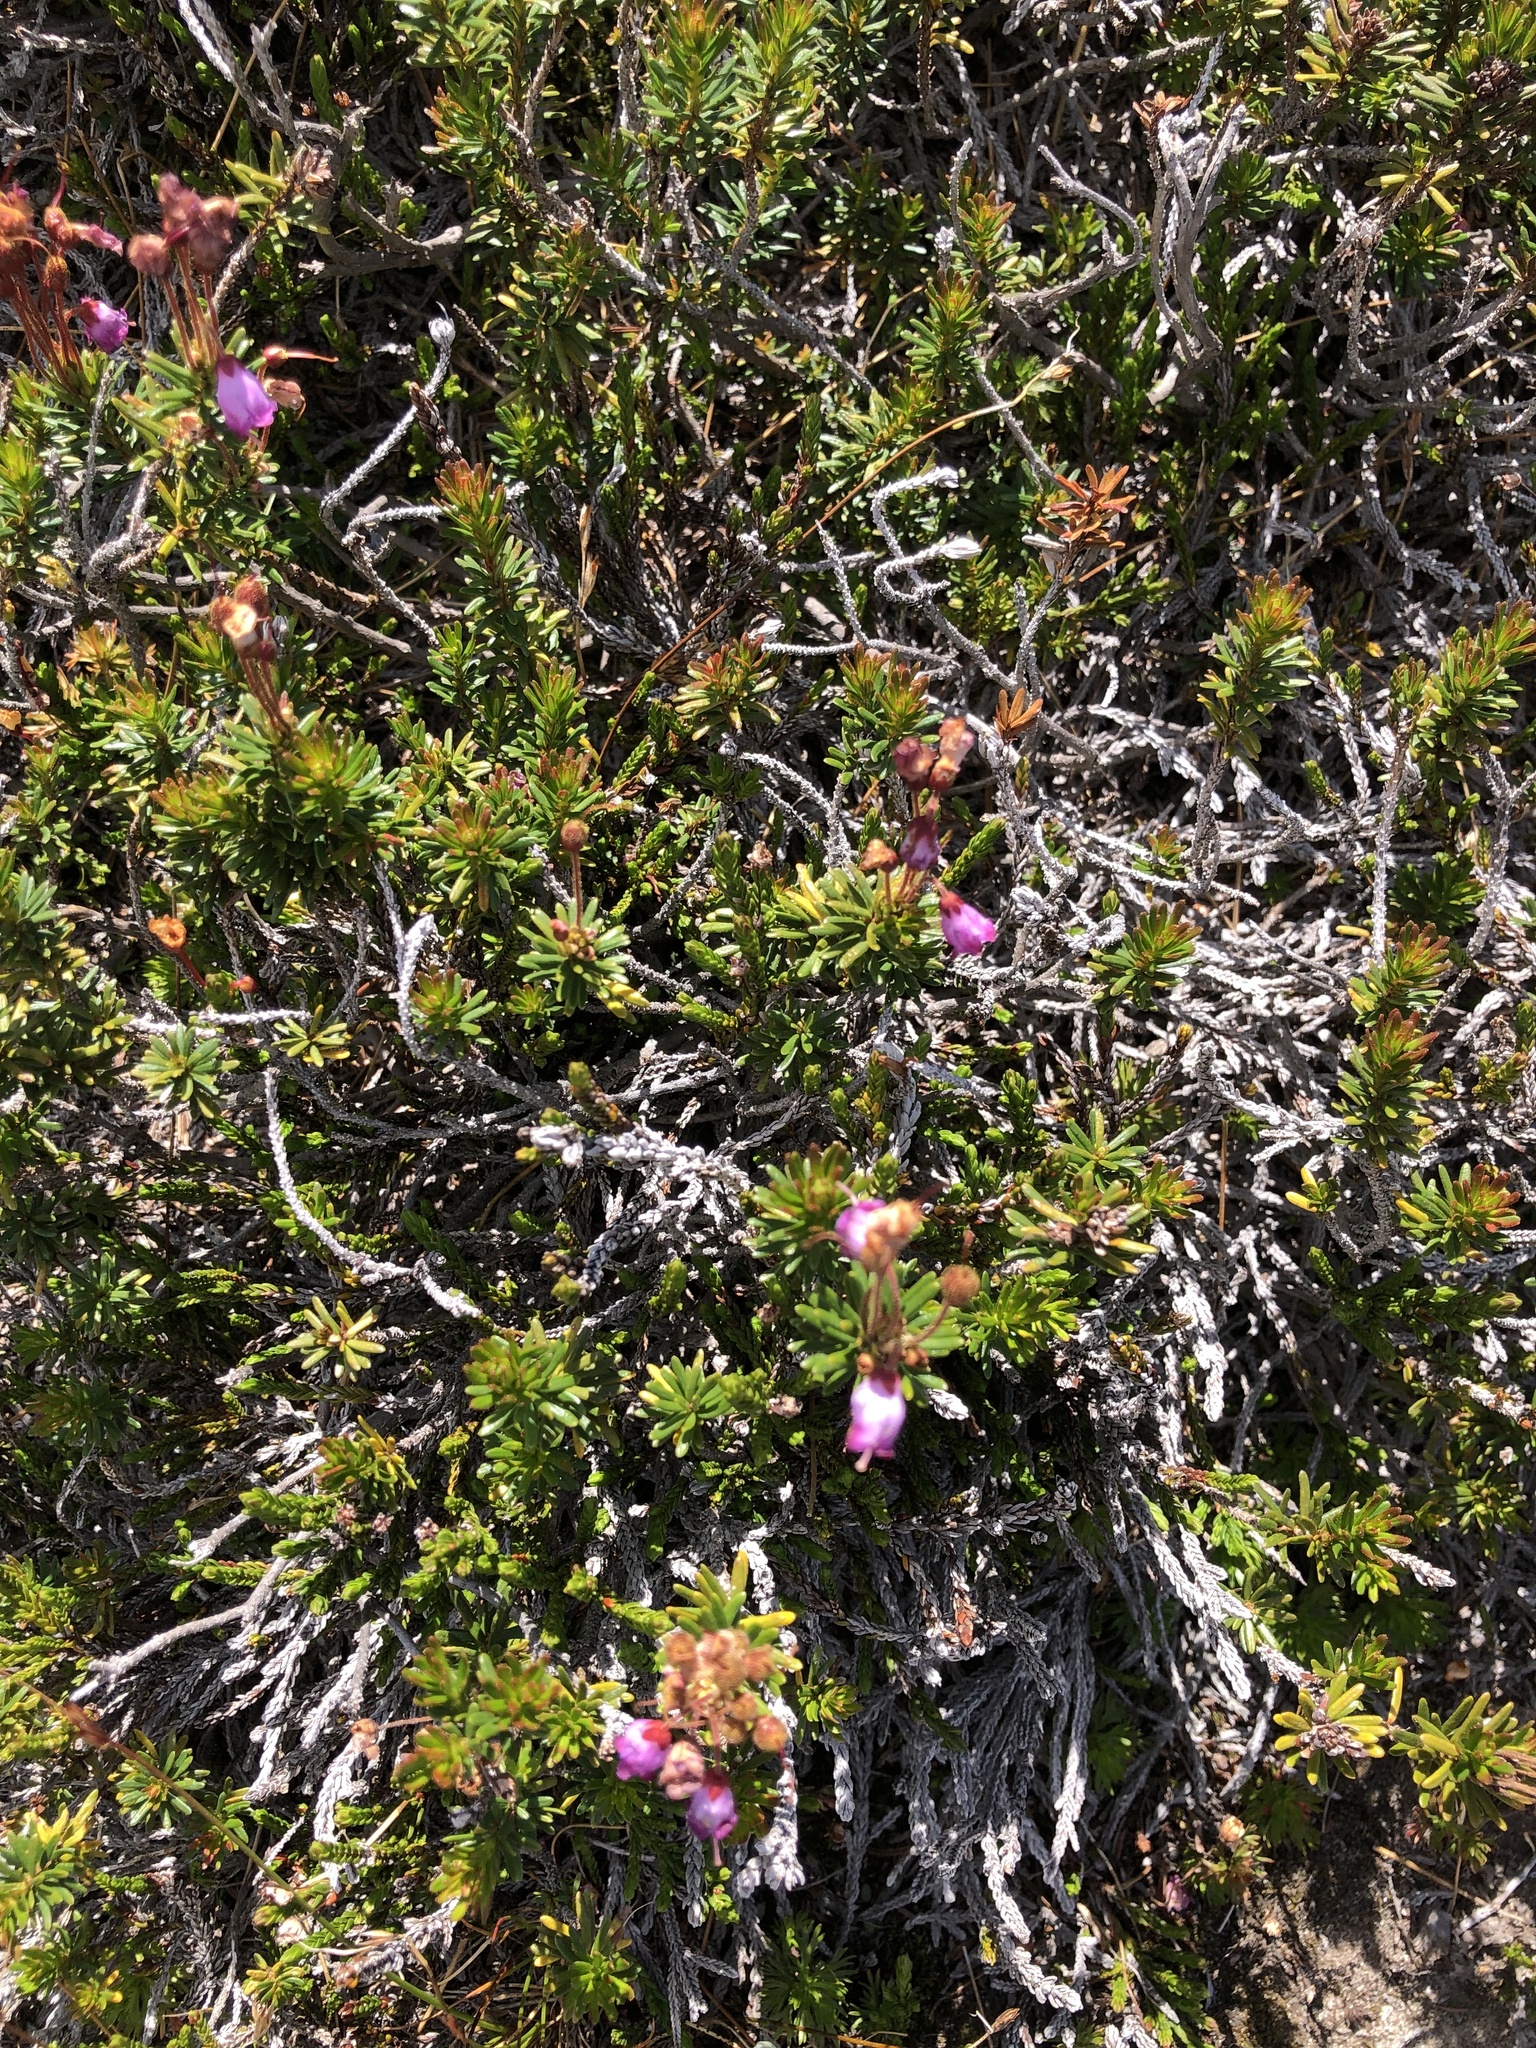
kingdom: Plantae
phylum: Tracheophyta
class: Magnoliopsida
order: Ericales
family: Ericaceae
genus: Phyllodoce
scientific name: Phyllodoce empetriformis
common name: Pink mountain heather
